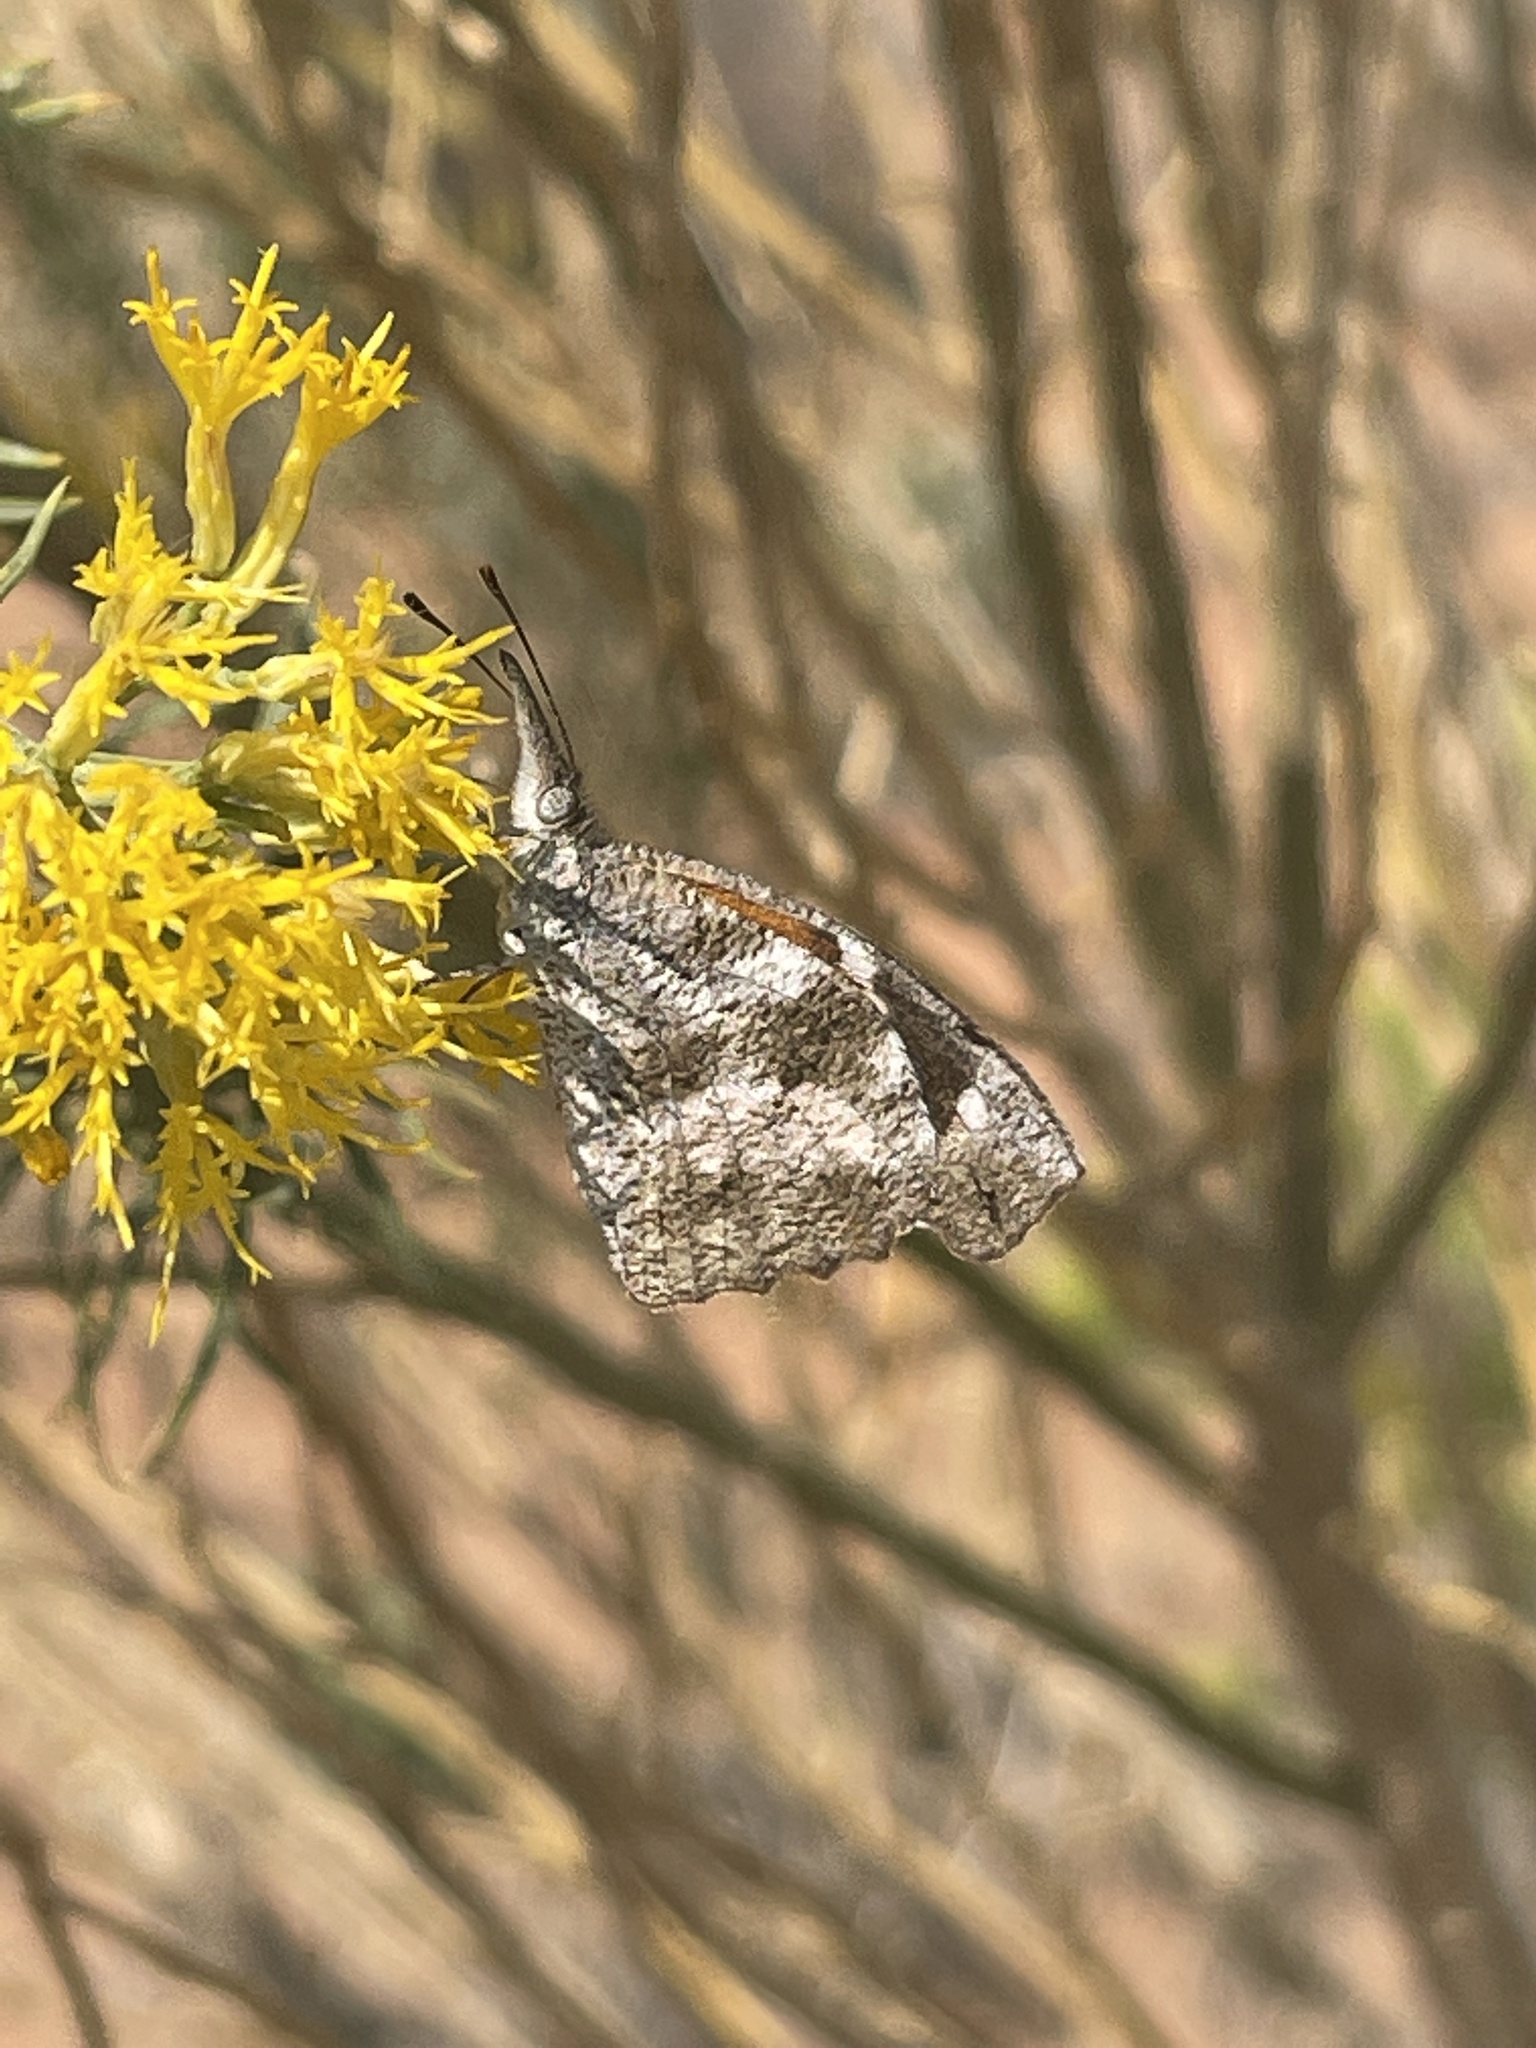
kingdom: Animalia
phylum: Arthropoda
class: Insecta
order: Lepidoptera
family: Nymphalidae
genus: Libytheana
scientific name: Libytheana carinenta
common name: American snout
